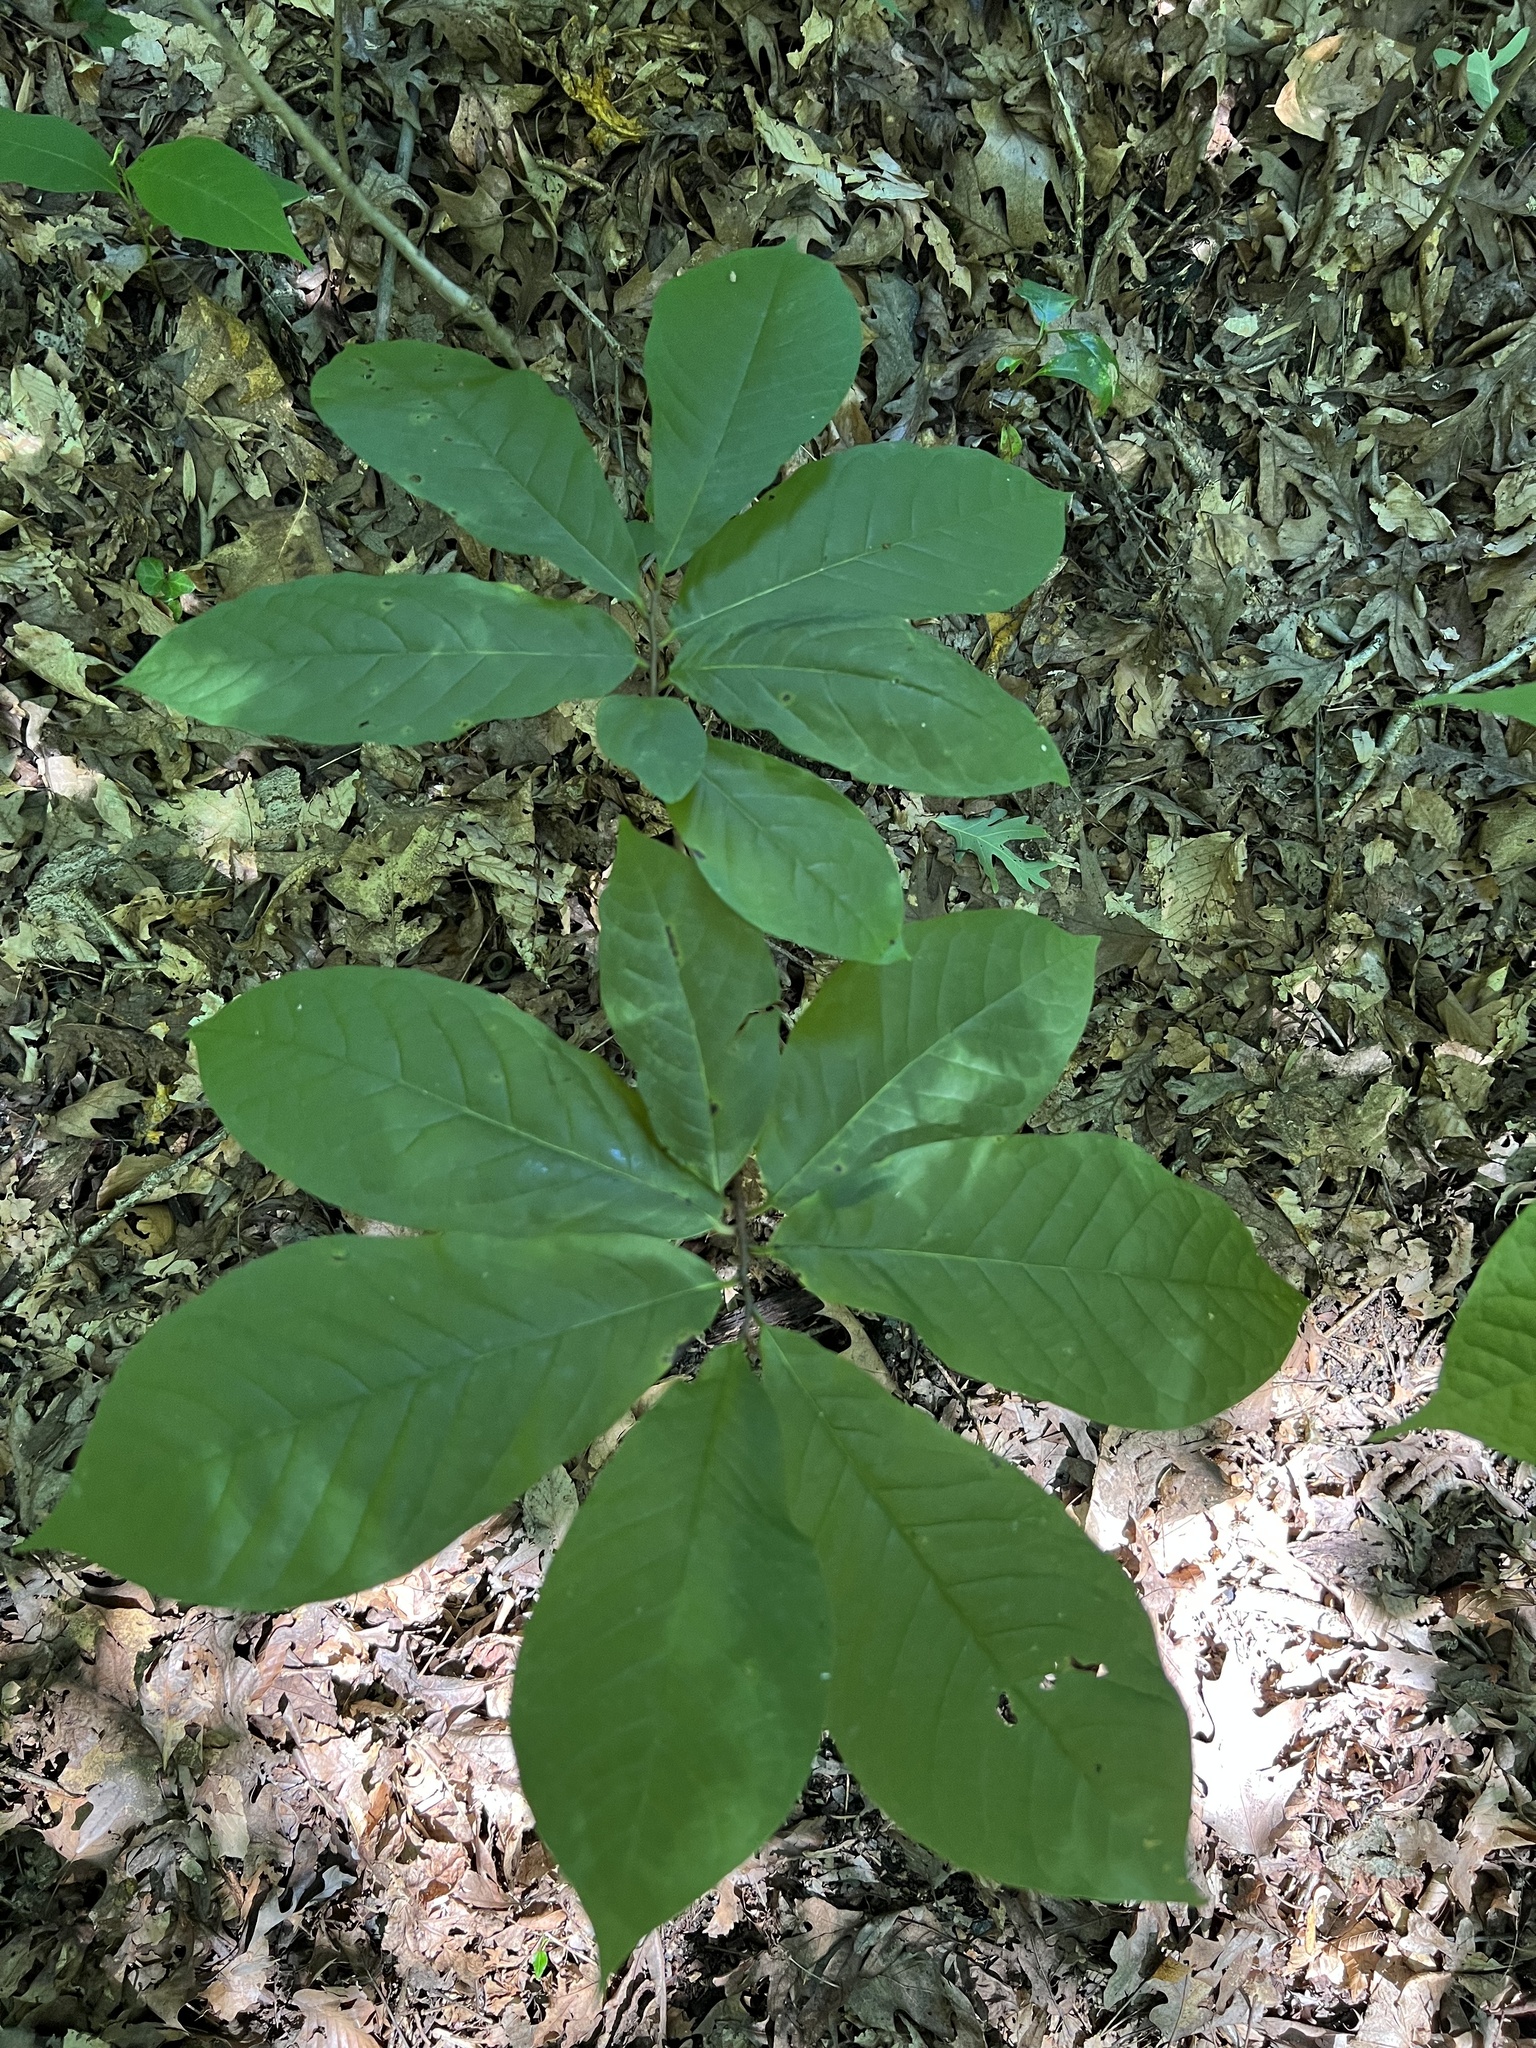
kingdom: Plantae
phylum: Tracheophyta
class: Magnoliopsida
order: Magnoliales
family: Annonaceae
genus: Asimina
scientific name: Asimina triloba
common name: Dog-banana
